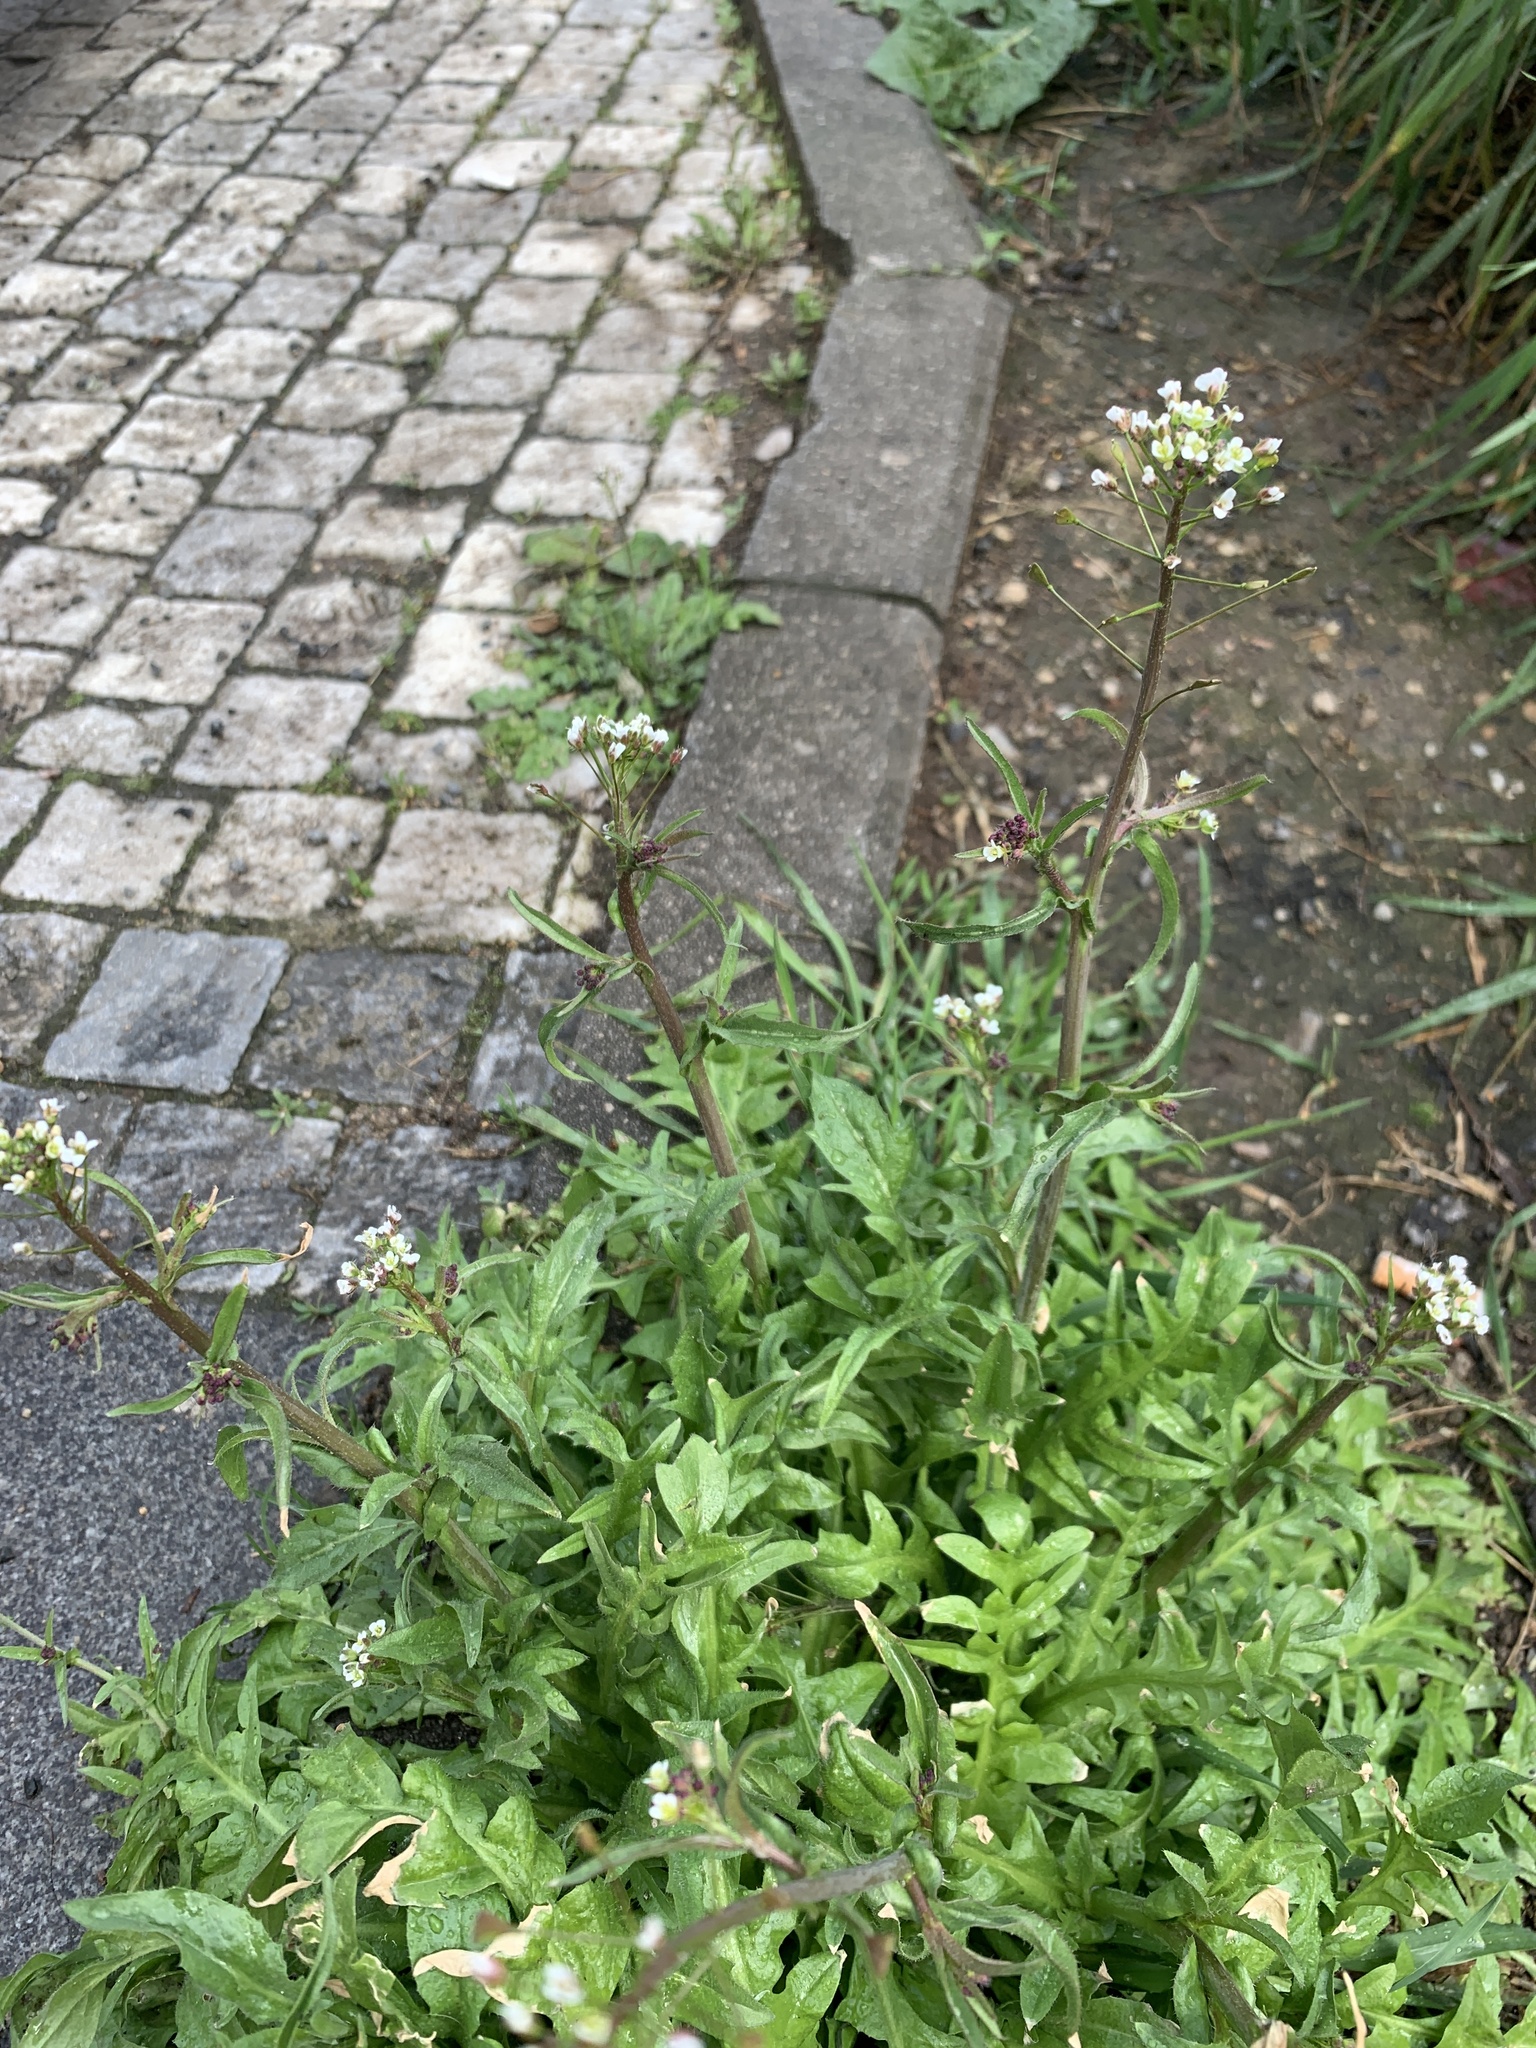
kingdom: Plantae
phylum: Tracheophyta
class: Magnoliopsida
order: Brassicales
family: Brassicaceae
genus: Capsella
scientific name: Capsella bursa-pastoris
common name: Shepherd's purse
